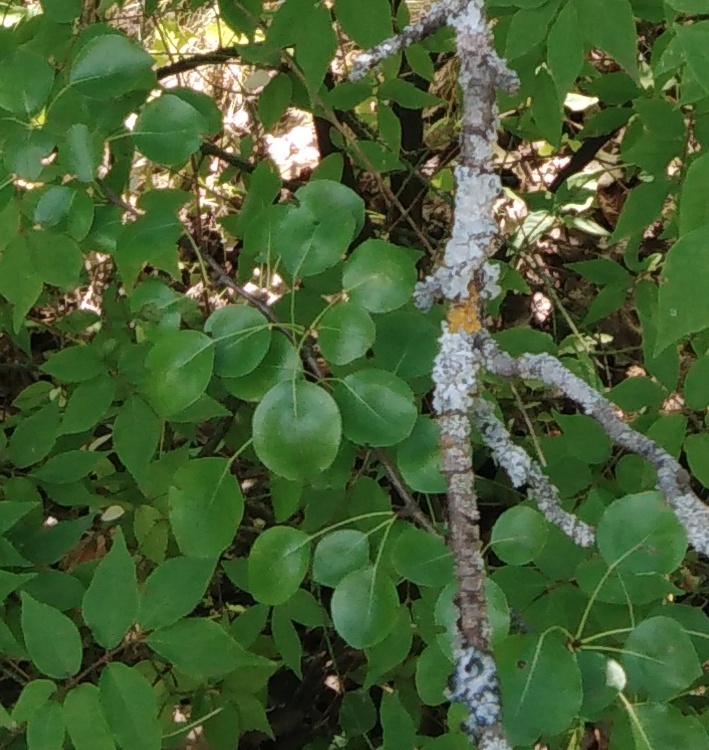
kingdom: Plantae
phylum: Tracheophyta
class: Magnoliopsida
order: Rosales
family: Rosaceae
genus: Pyrus
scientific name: Pyrus communis
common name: Pear
